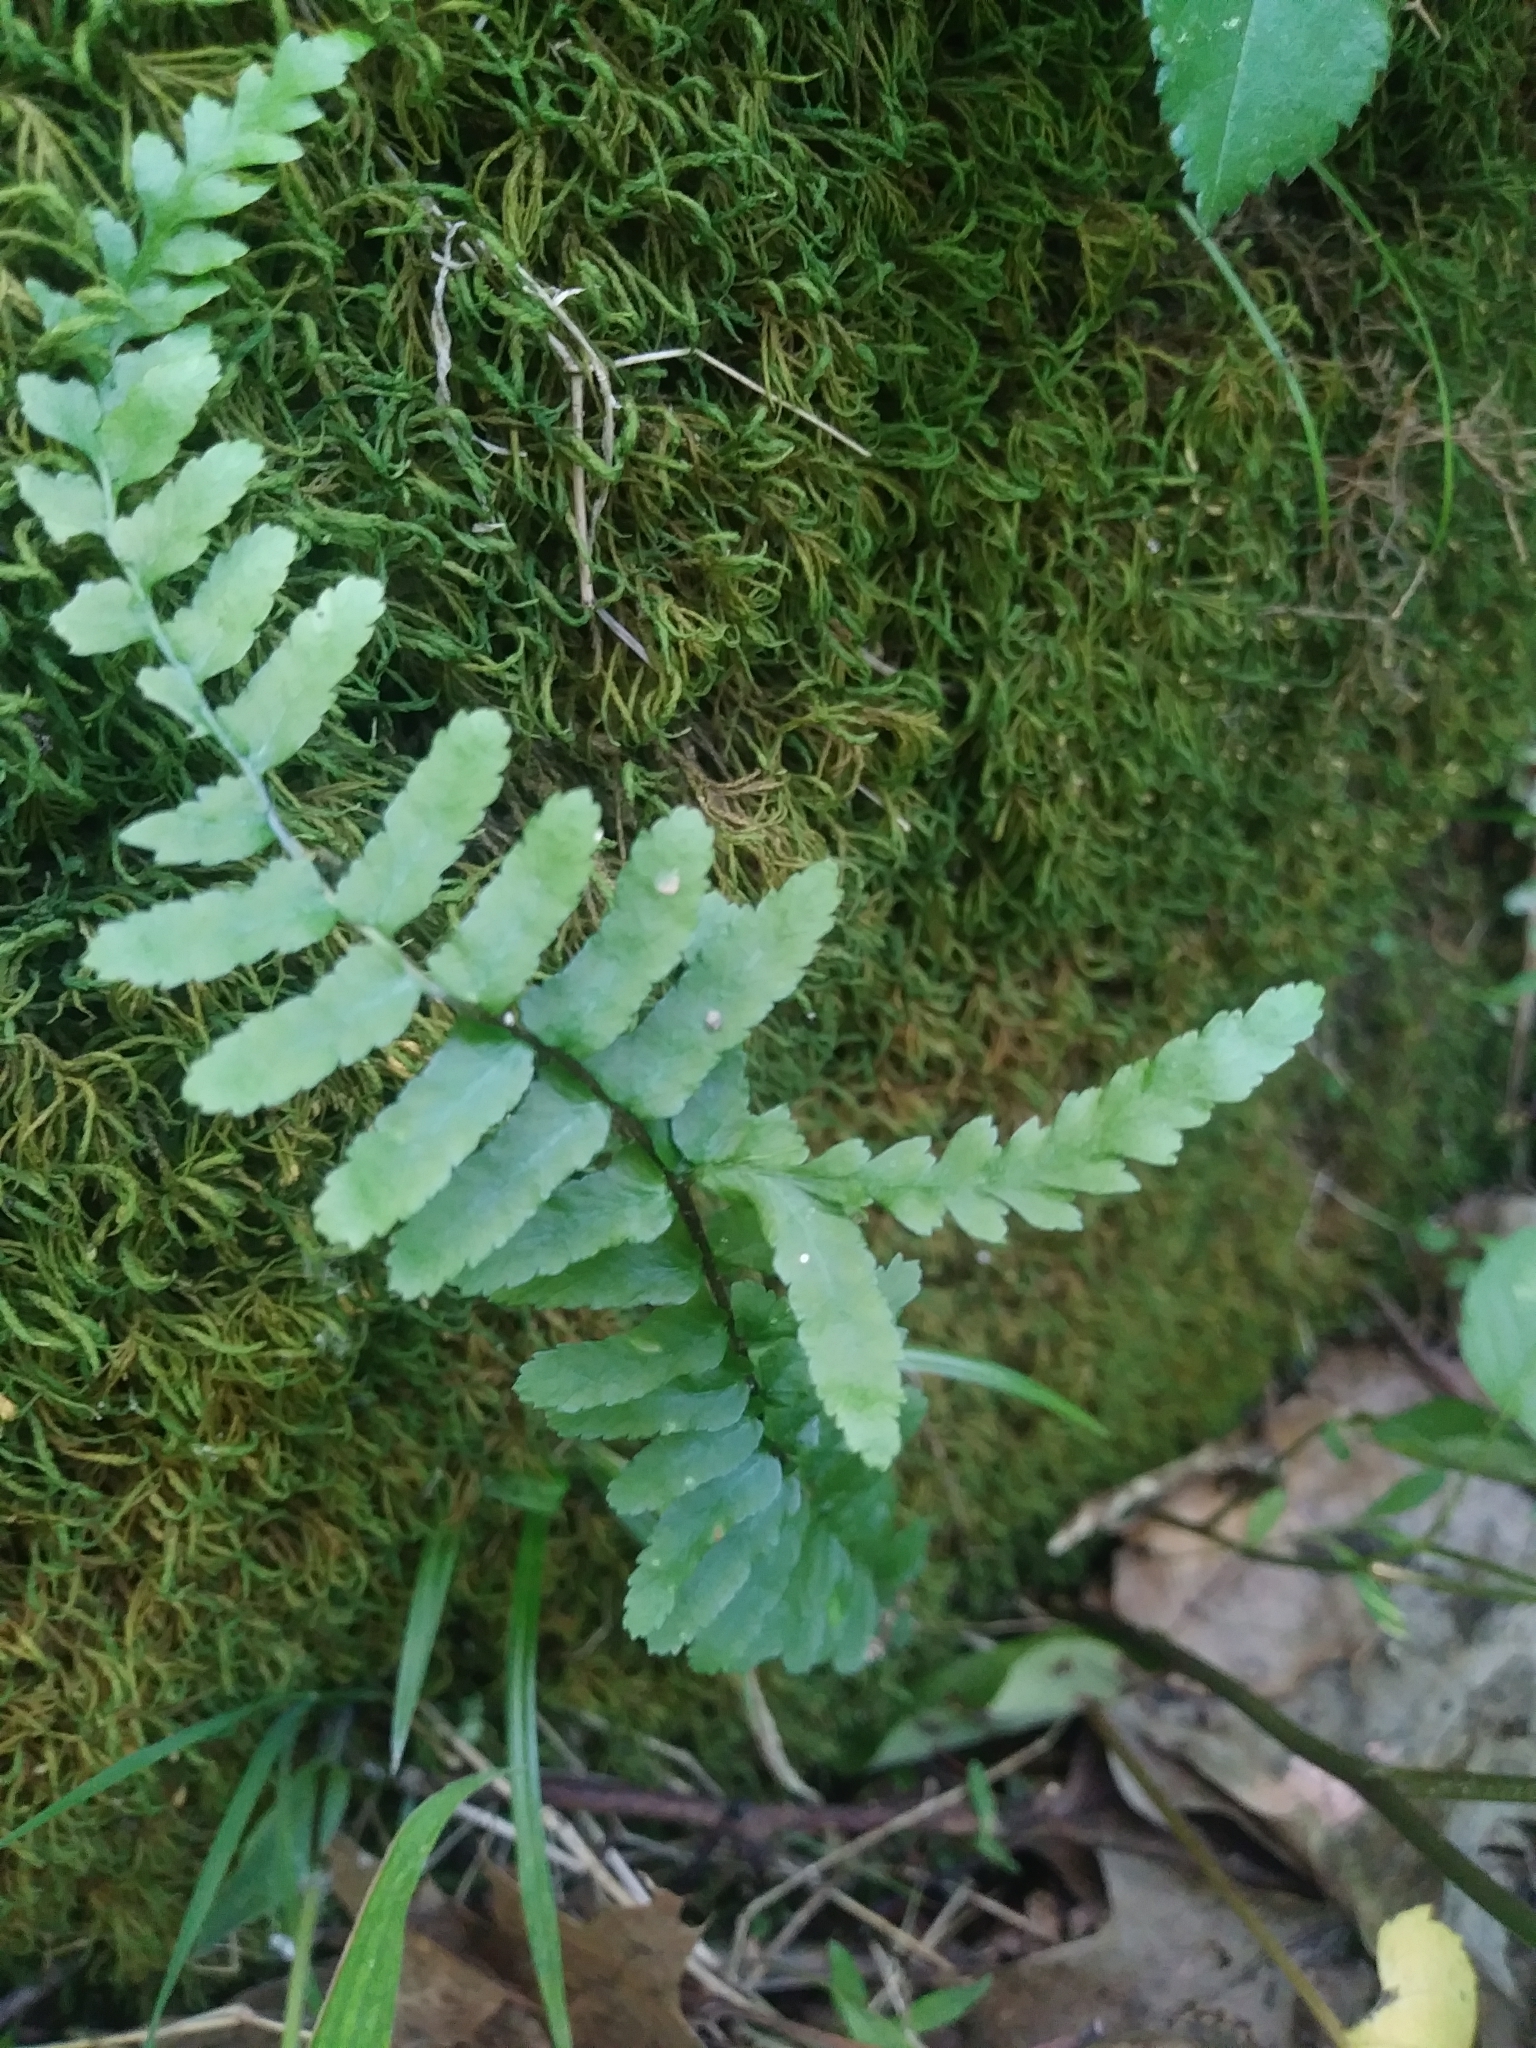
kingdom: Plantae
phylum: Tracheophyta
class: Polypodiopsida
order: Polypodiales
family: Aspleniaceae
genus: Asplenium
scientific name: Asplenium platyneuron
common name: Ebony spleenwort
